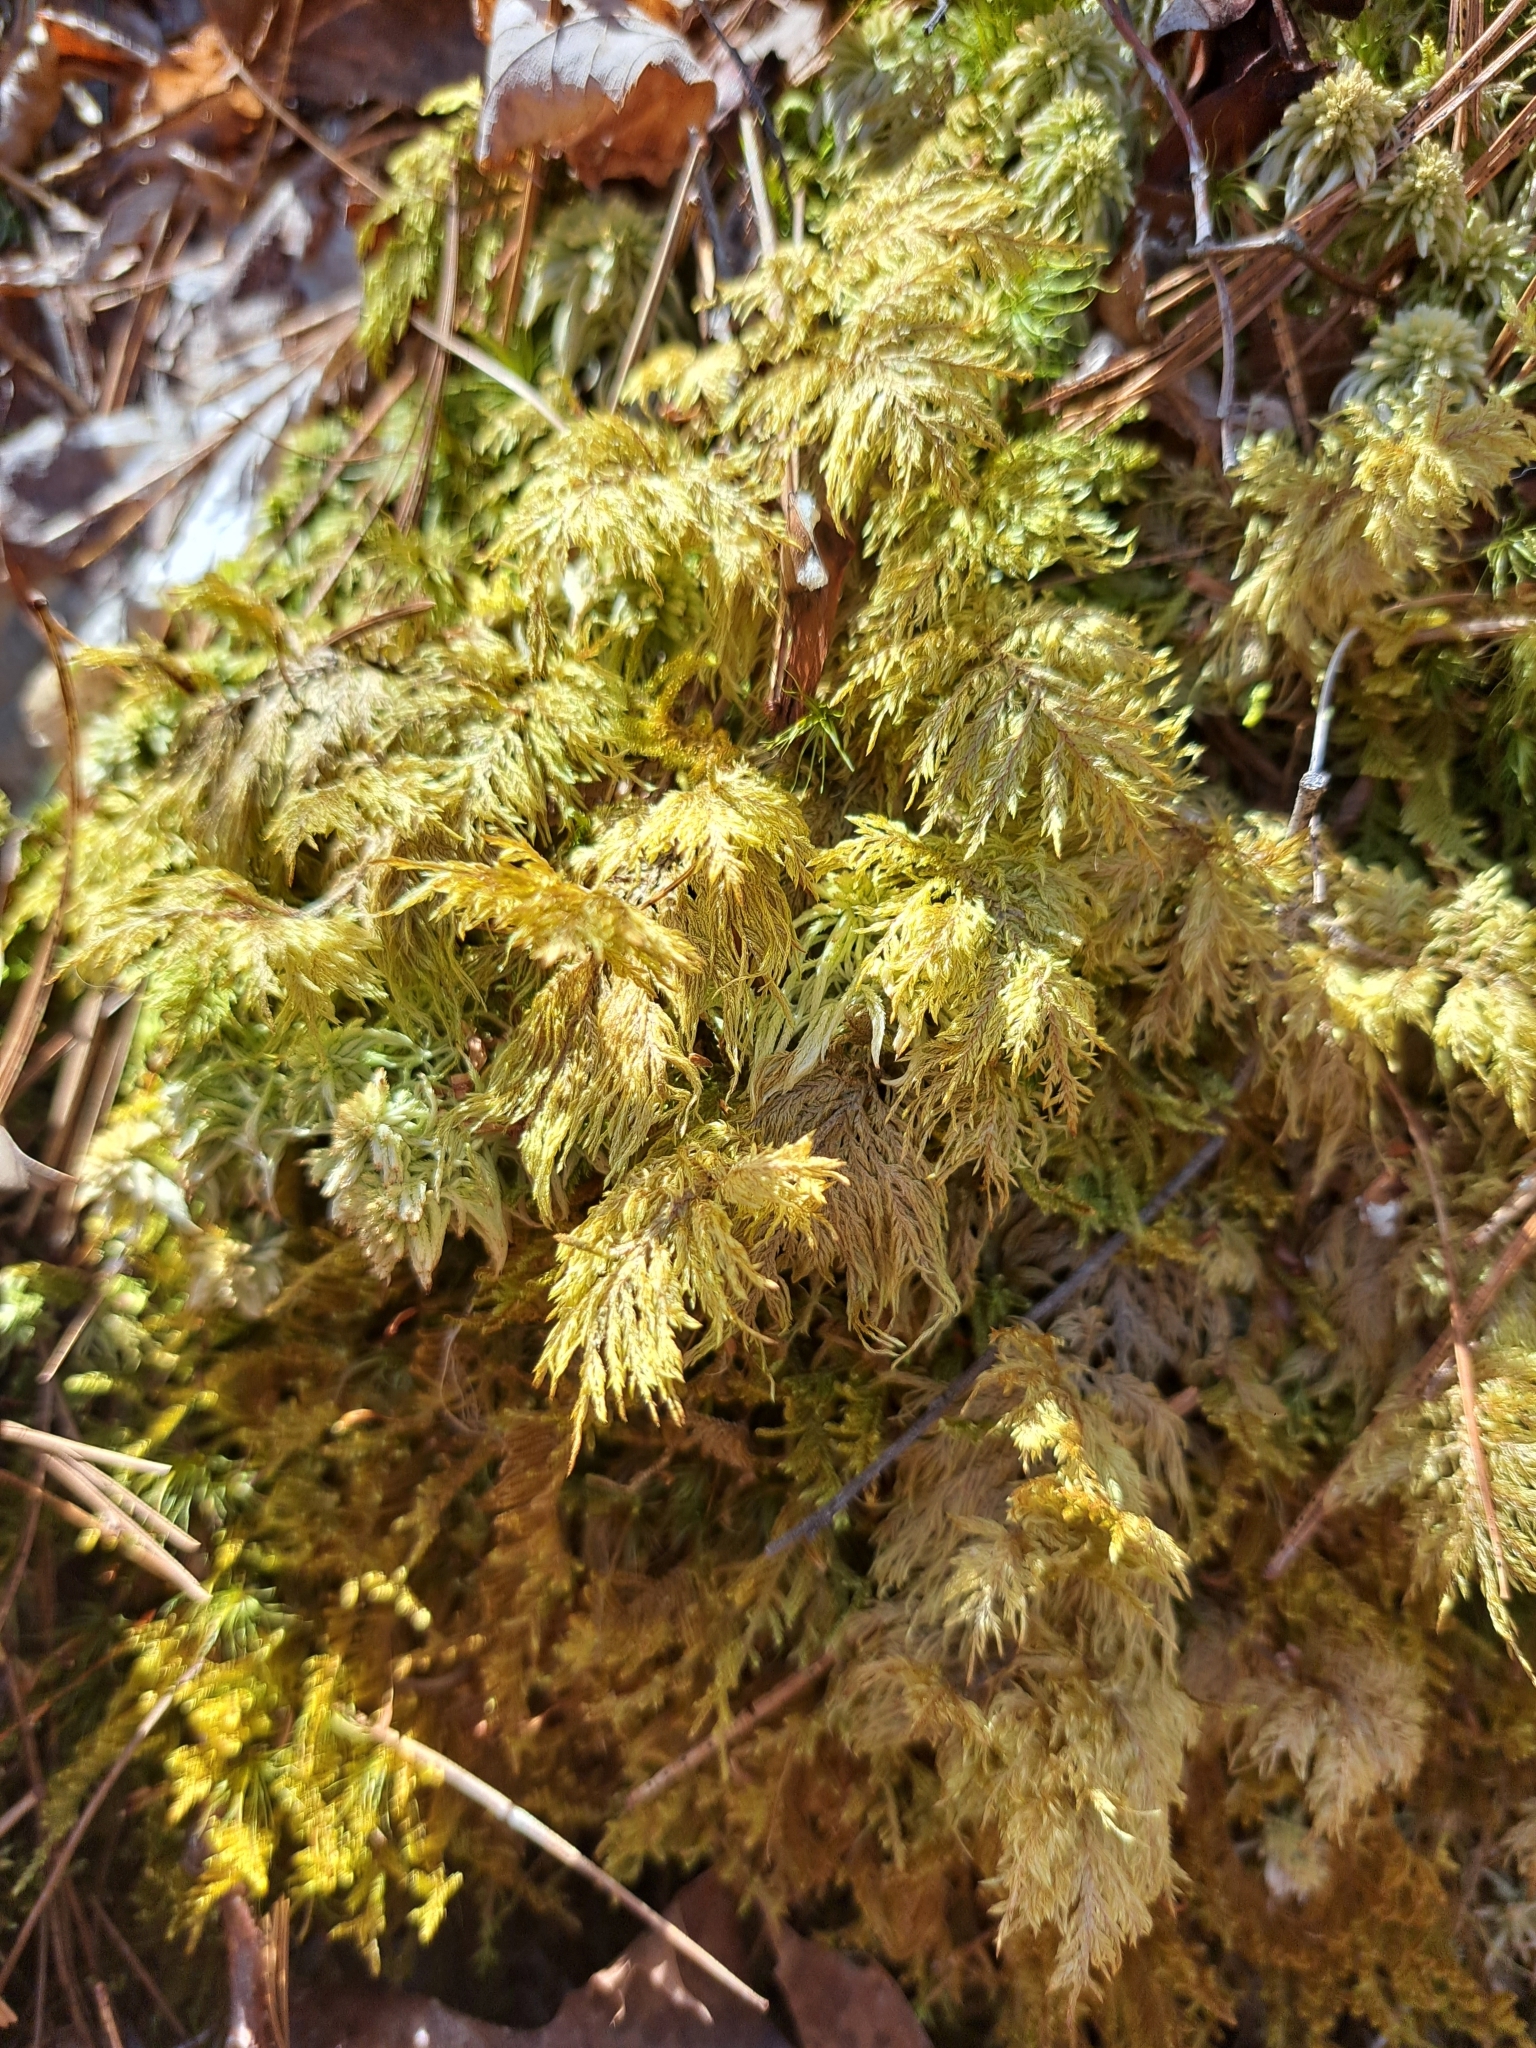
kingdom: Plantae
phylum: Bryophyta
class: Bryopsida
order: Hypnales
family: Hylocomiaceae
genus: Hylocomium
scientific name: Hylocomium splendens
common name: Stairstep moss
